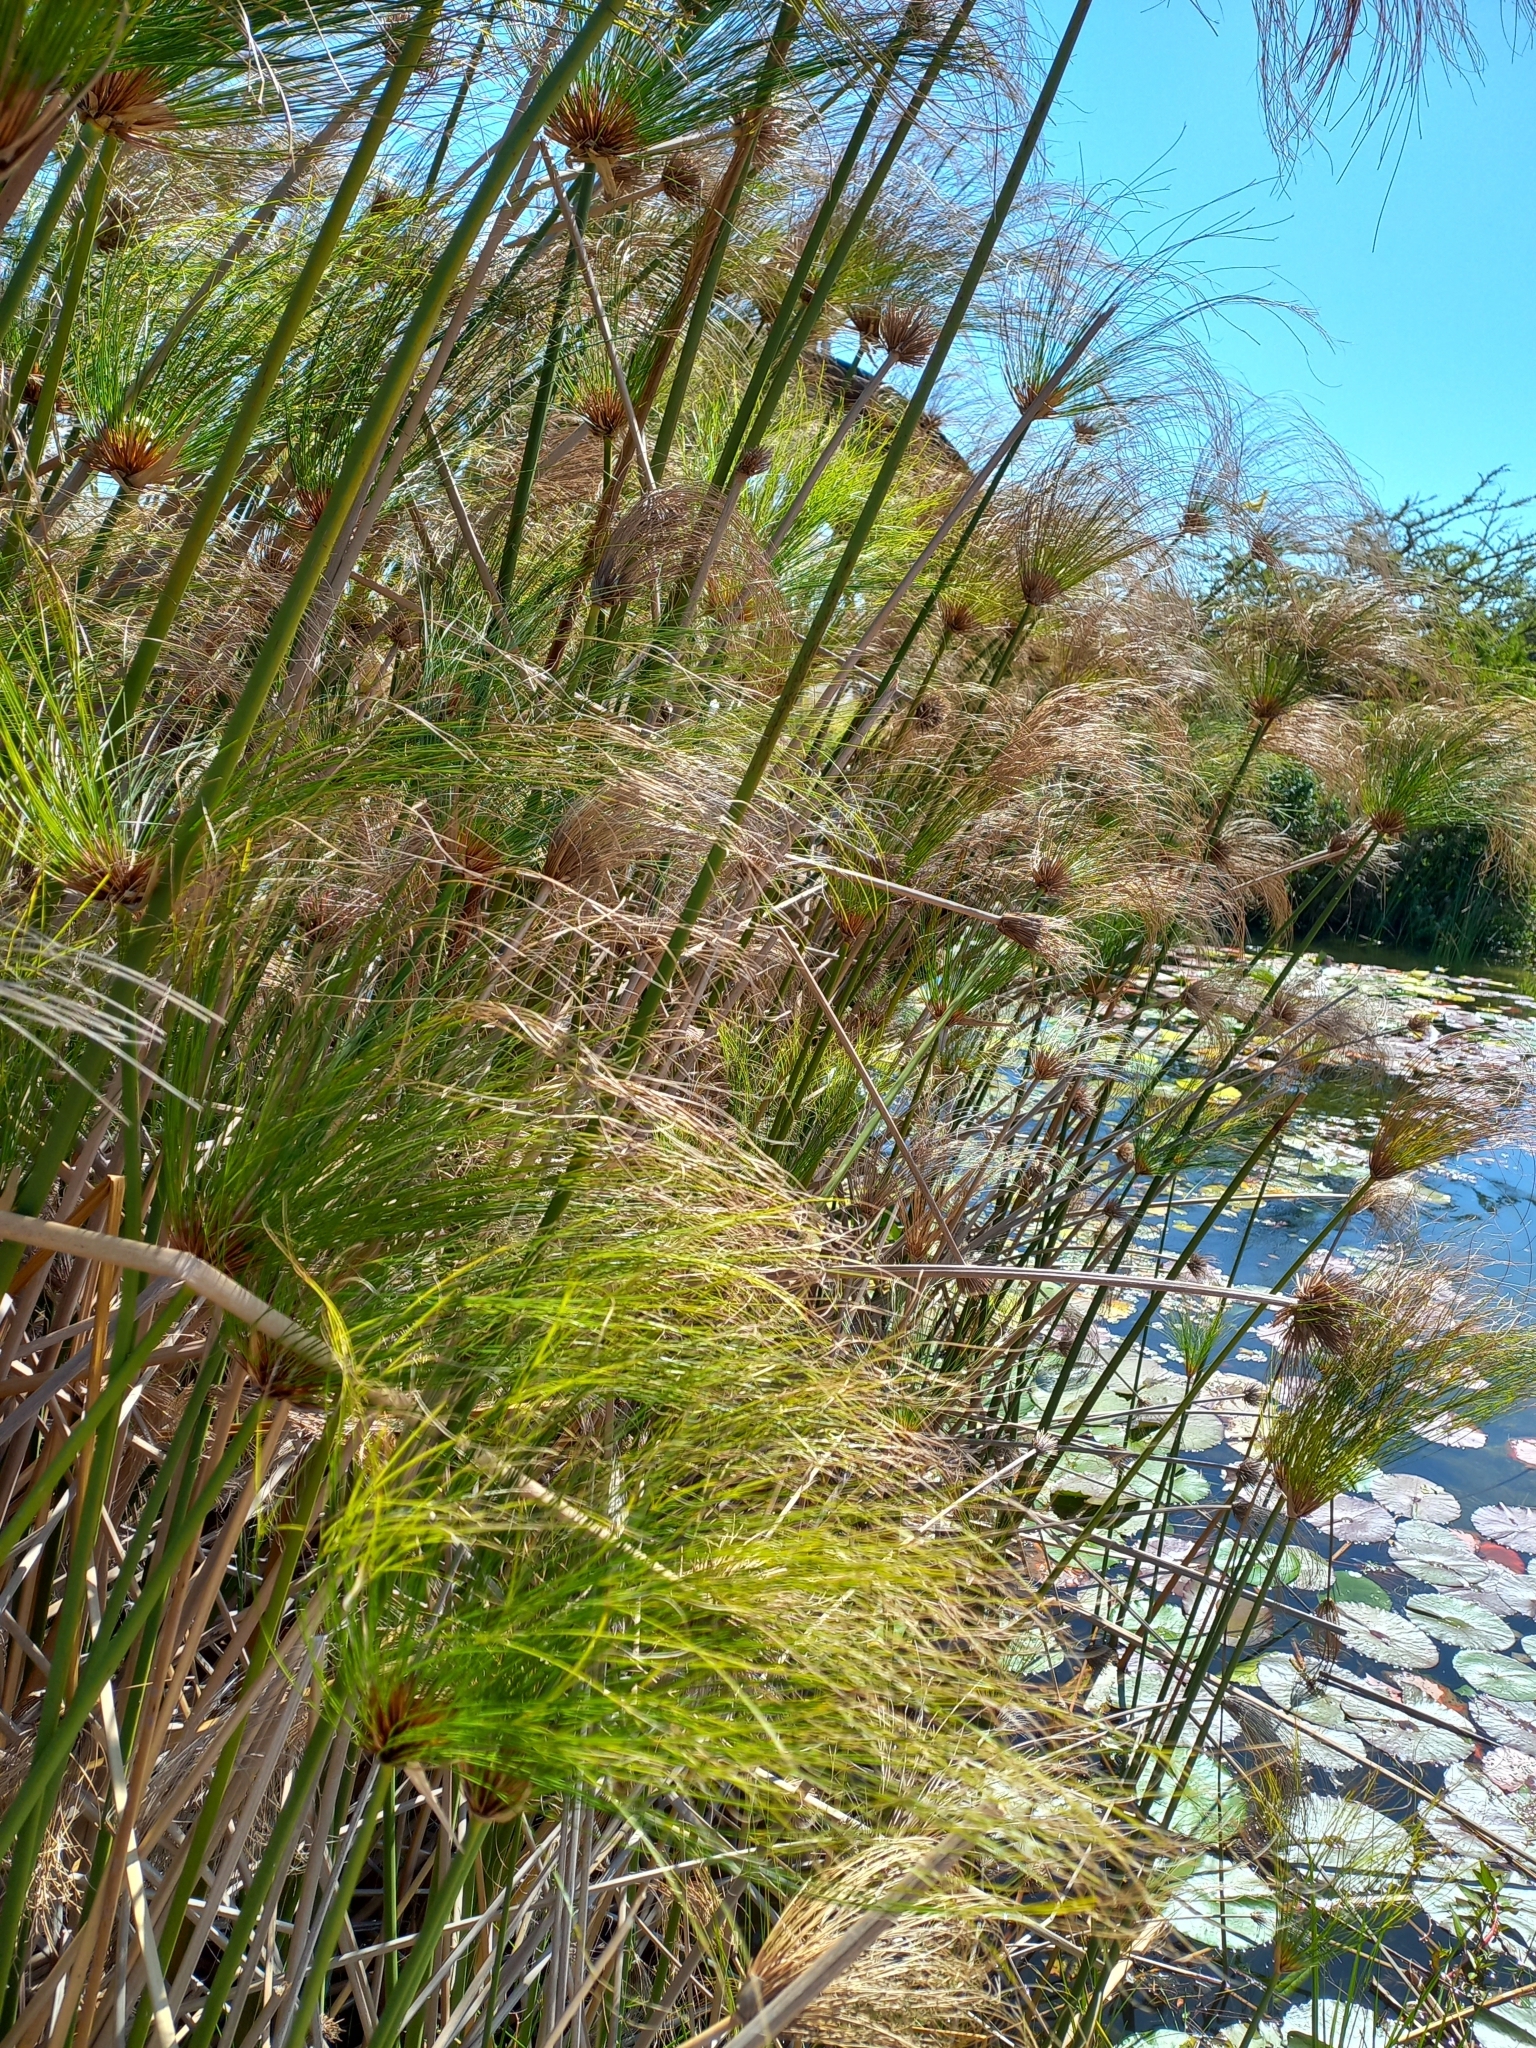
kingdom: Plantae
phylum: Tracheophyta
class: Liliopsida
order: Poales
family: Cyperaceae
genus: Cyperus
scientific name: Cyperus papyrus
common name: Papyrus
